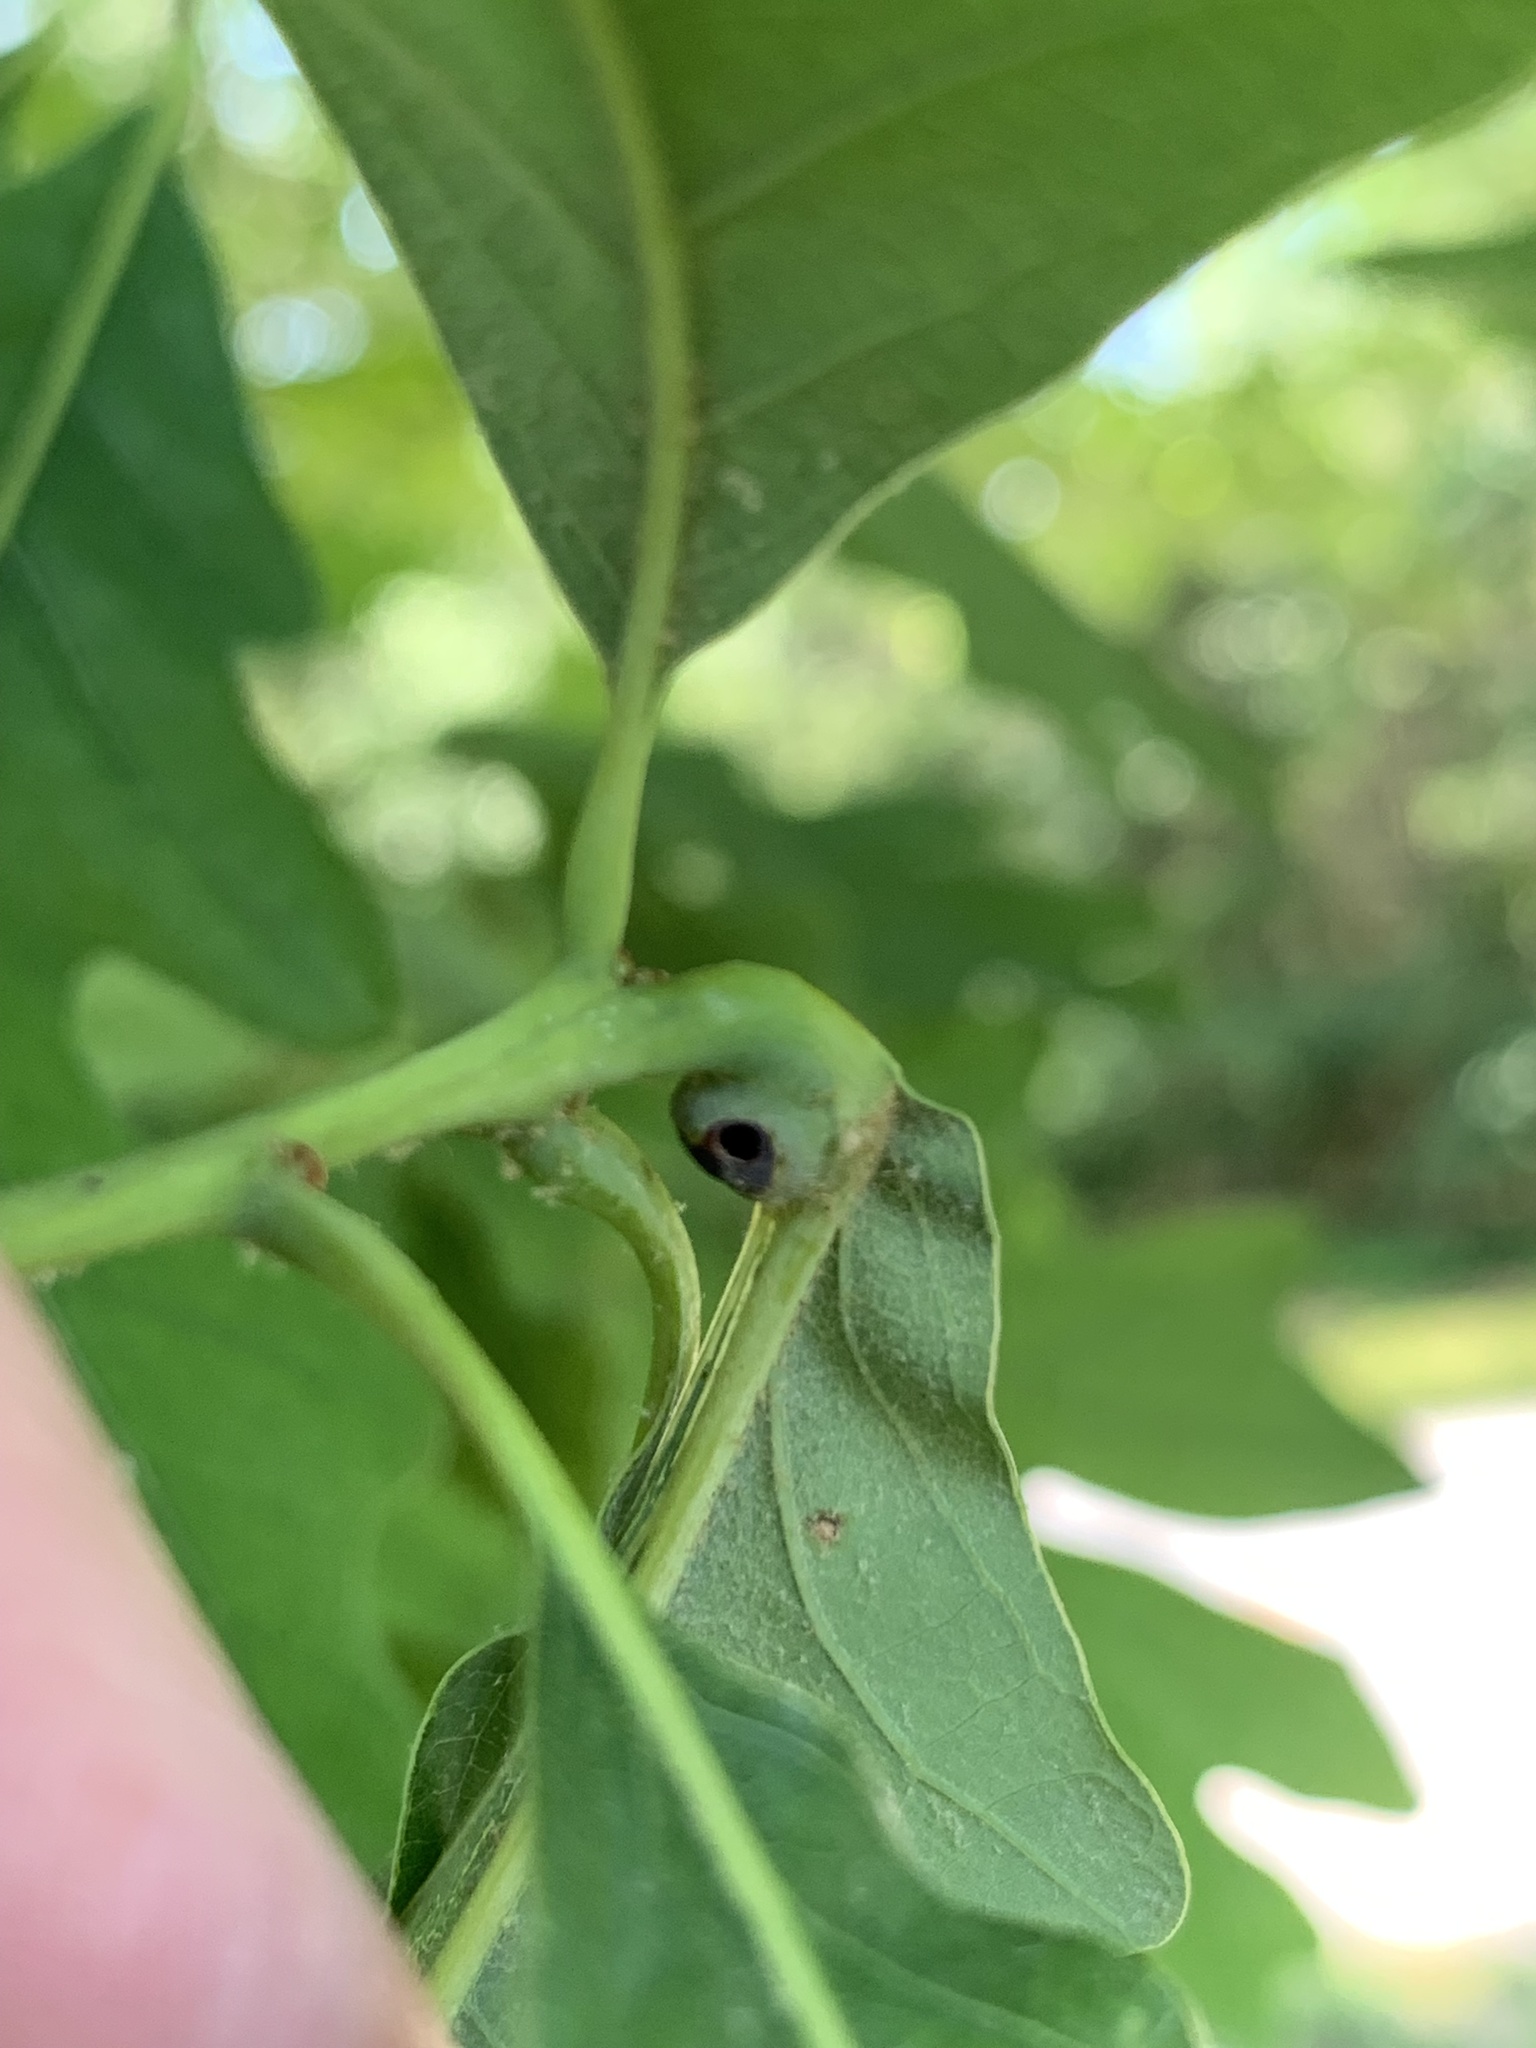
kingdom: Animalia
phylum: Arthropoda
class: Insecta
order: Hymenoptera
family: Cynipidae
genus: Andricus
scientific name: Andricus
